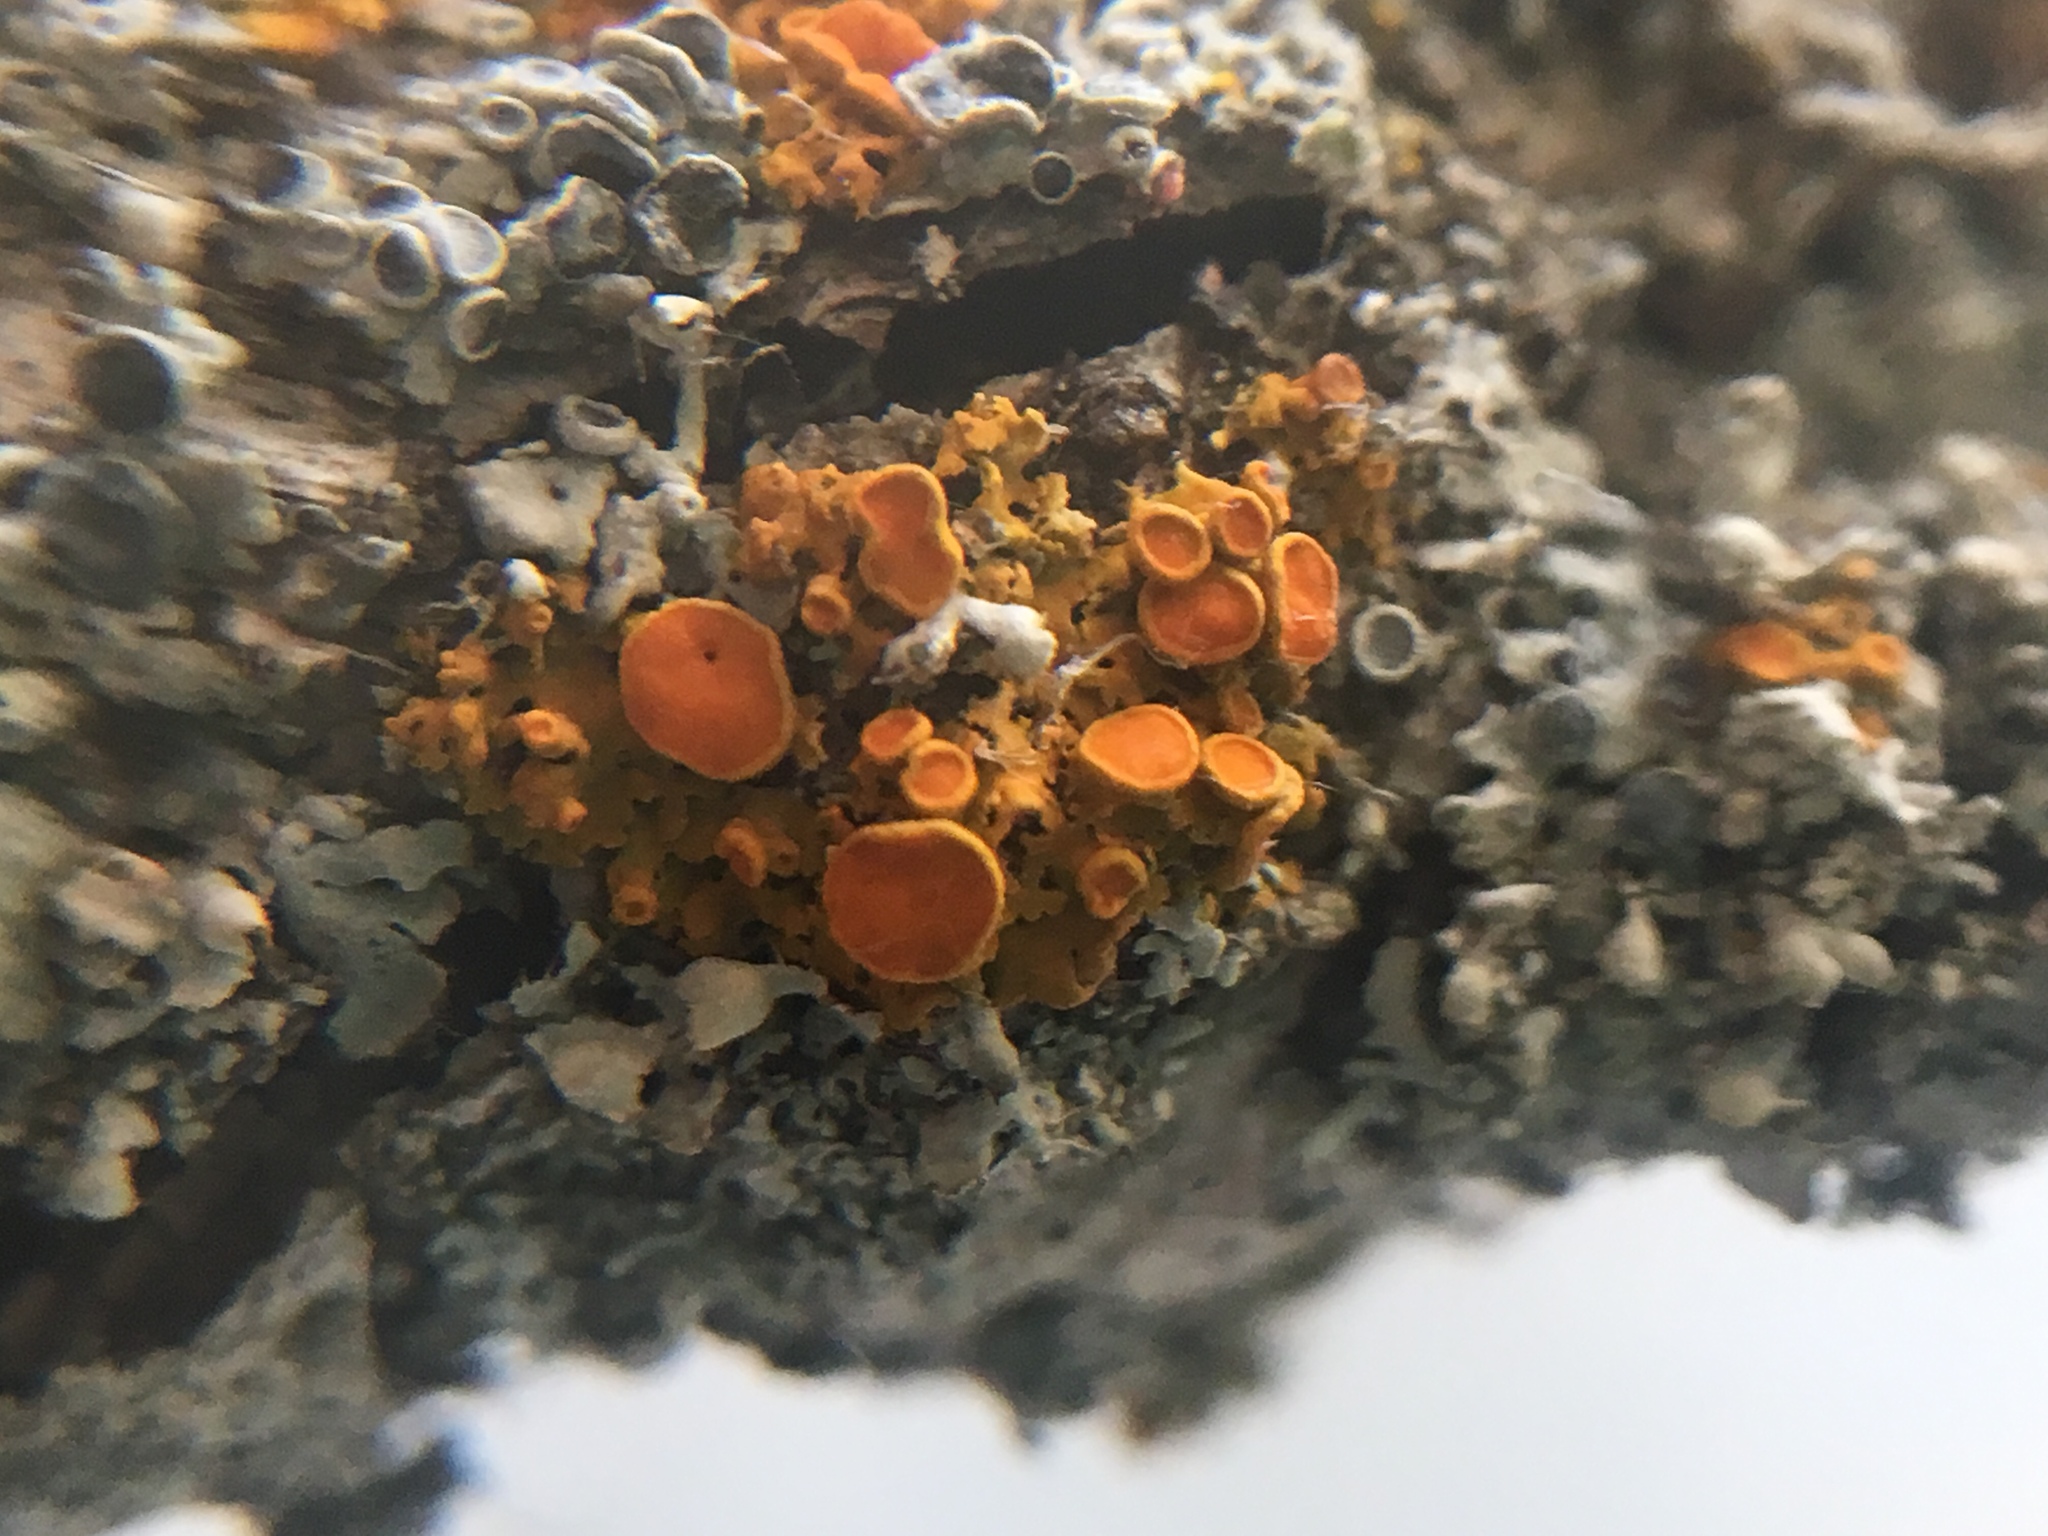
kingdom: Fungi
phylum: Ascomycota
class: Lecanoromycetes
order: Teloschistales
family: Teloschistaceae
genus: Gallowayella
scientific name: Gallowayella hasseana
